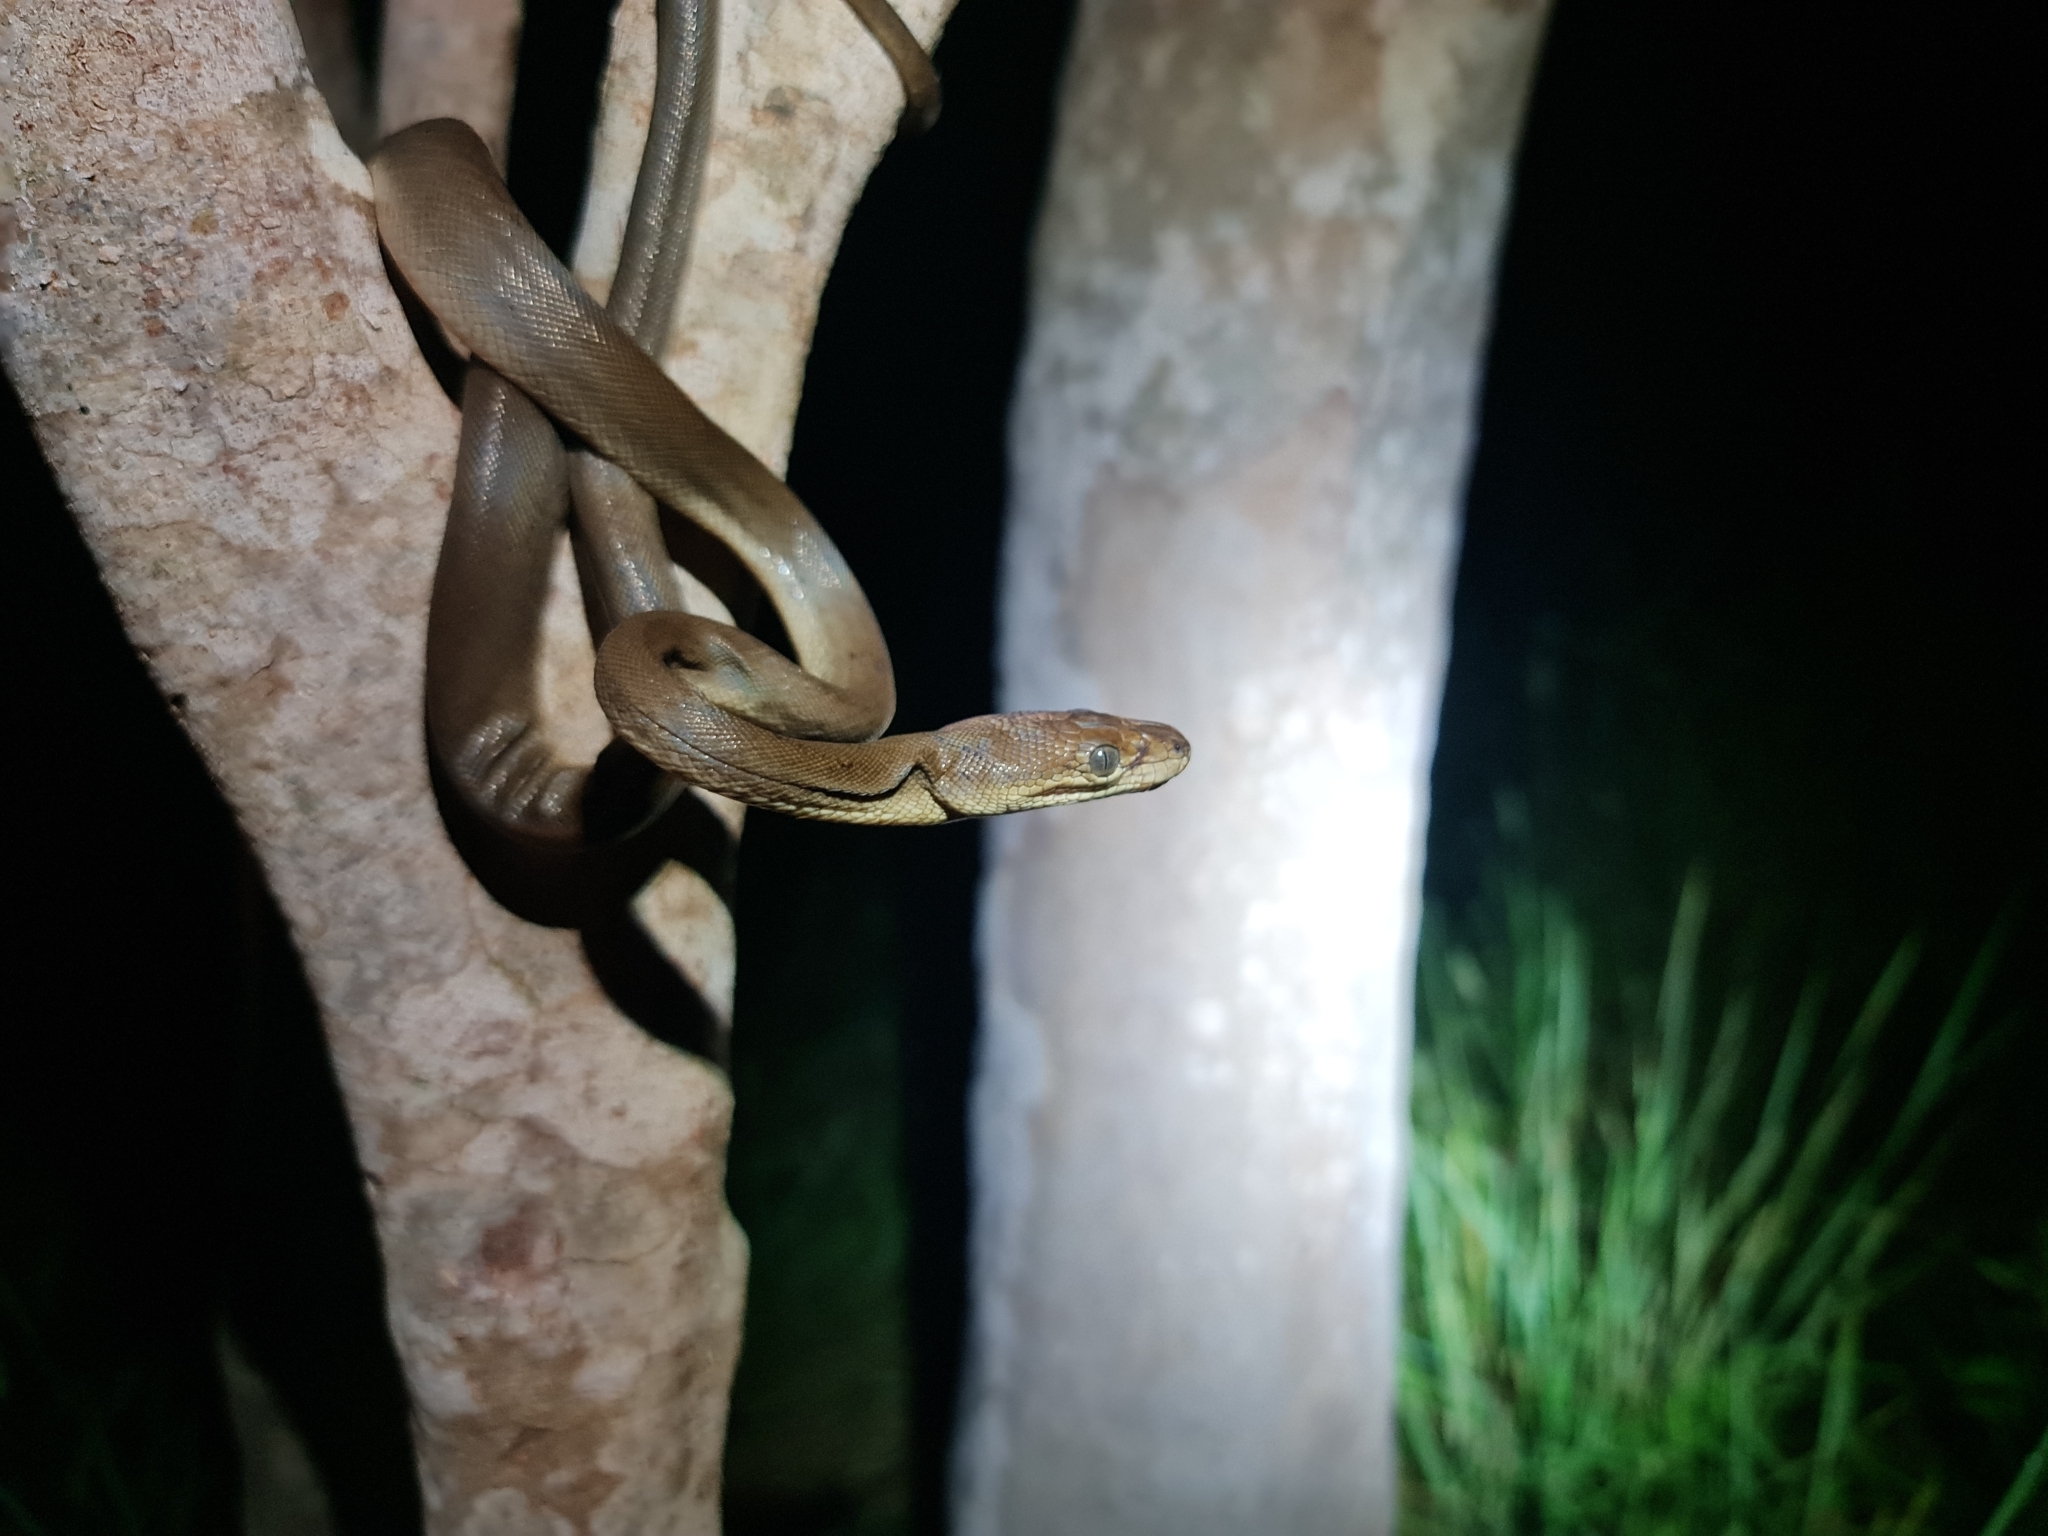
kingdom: Animalia
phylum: Chordata
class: Squamata
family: Pythonidae
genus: Liasis
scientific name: Liasis olivaceus
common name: Olive python
